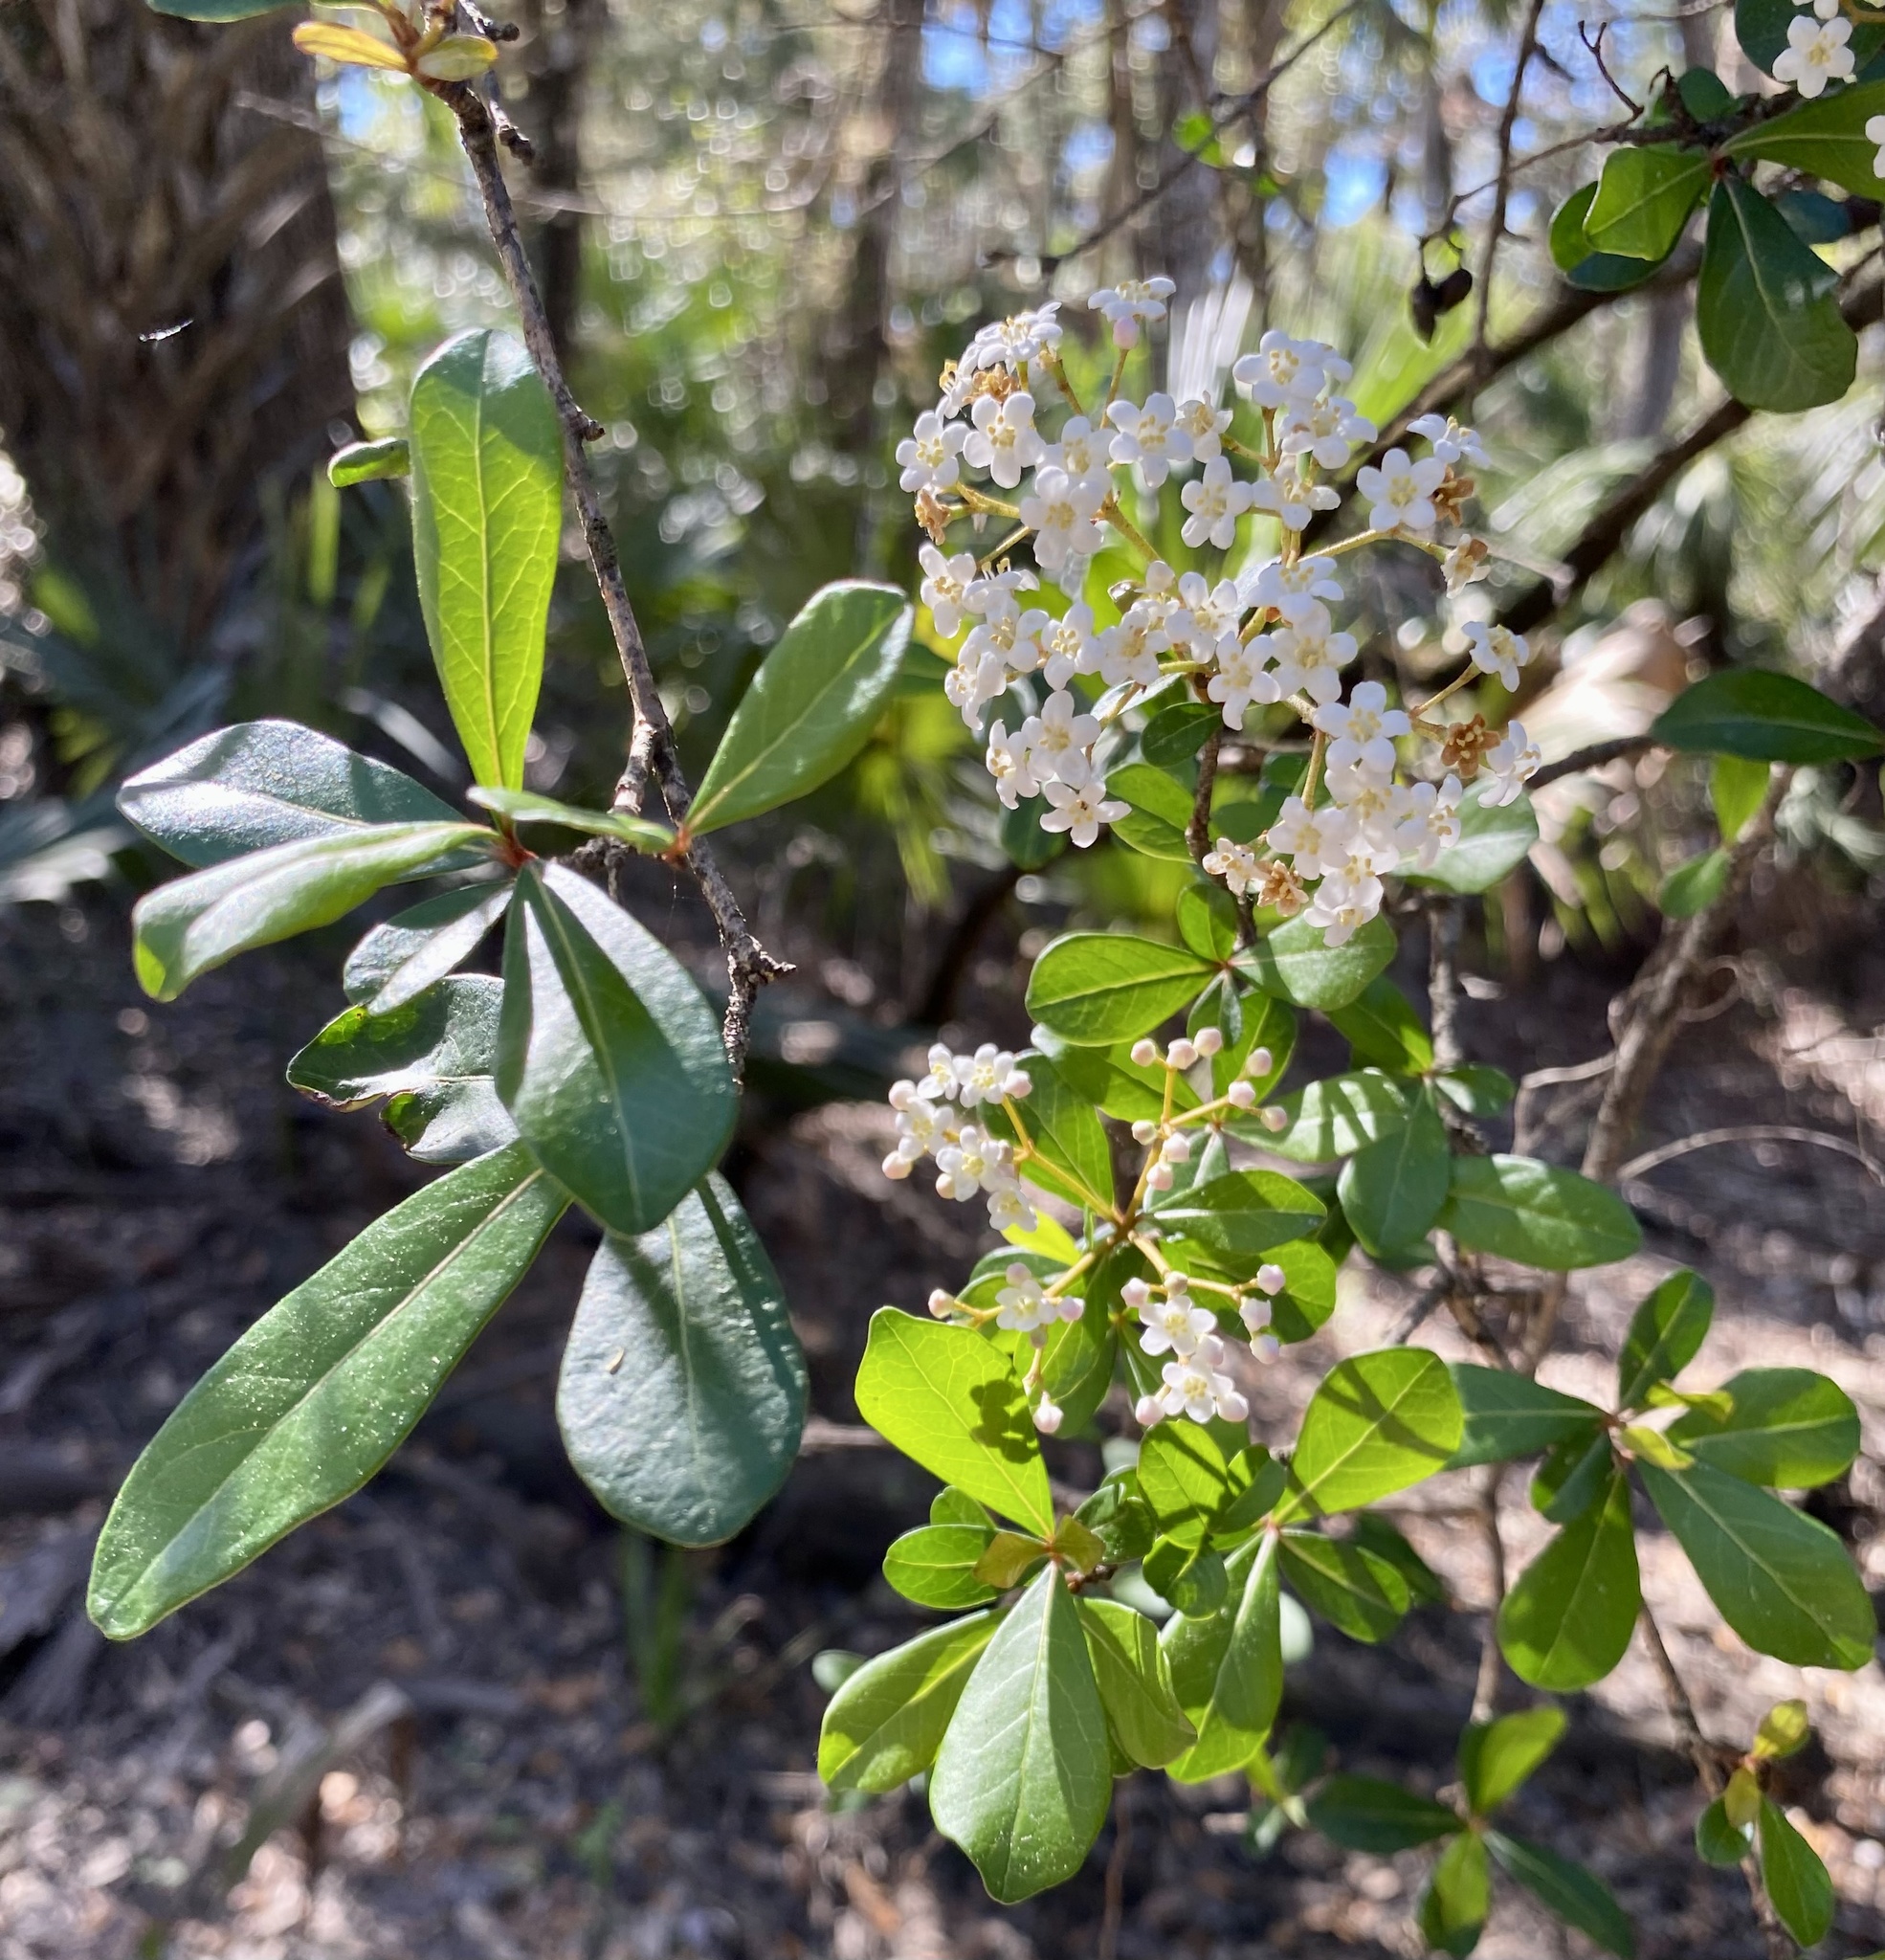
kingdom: Plantae
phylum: Tracheophyta
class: Magnoliopsida
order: Dipsacales
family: Viburnaceae
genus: Viburnum
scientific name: Viburnum obovatum
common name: Walter's viburnum
